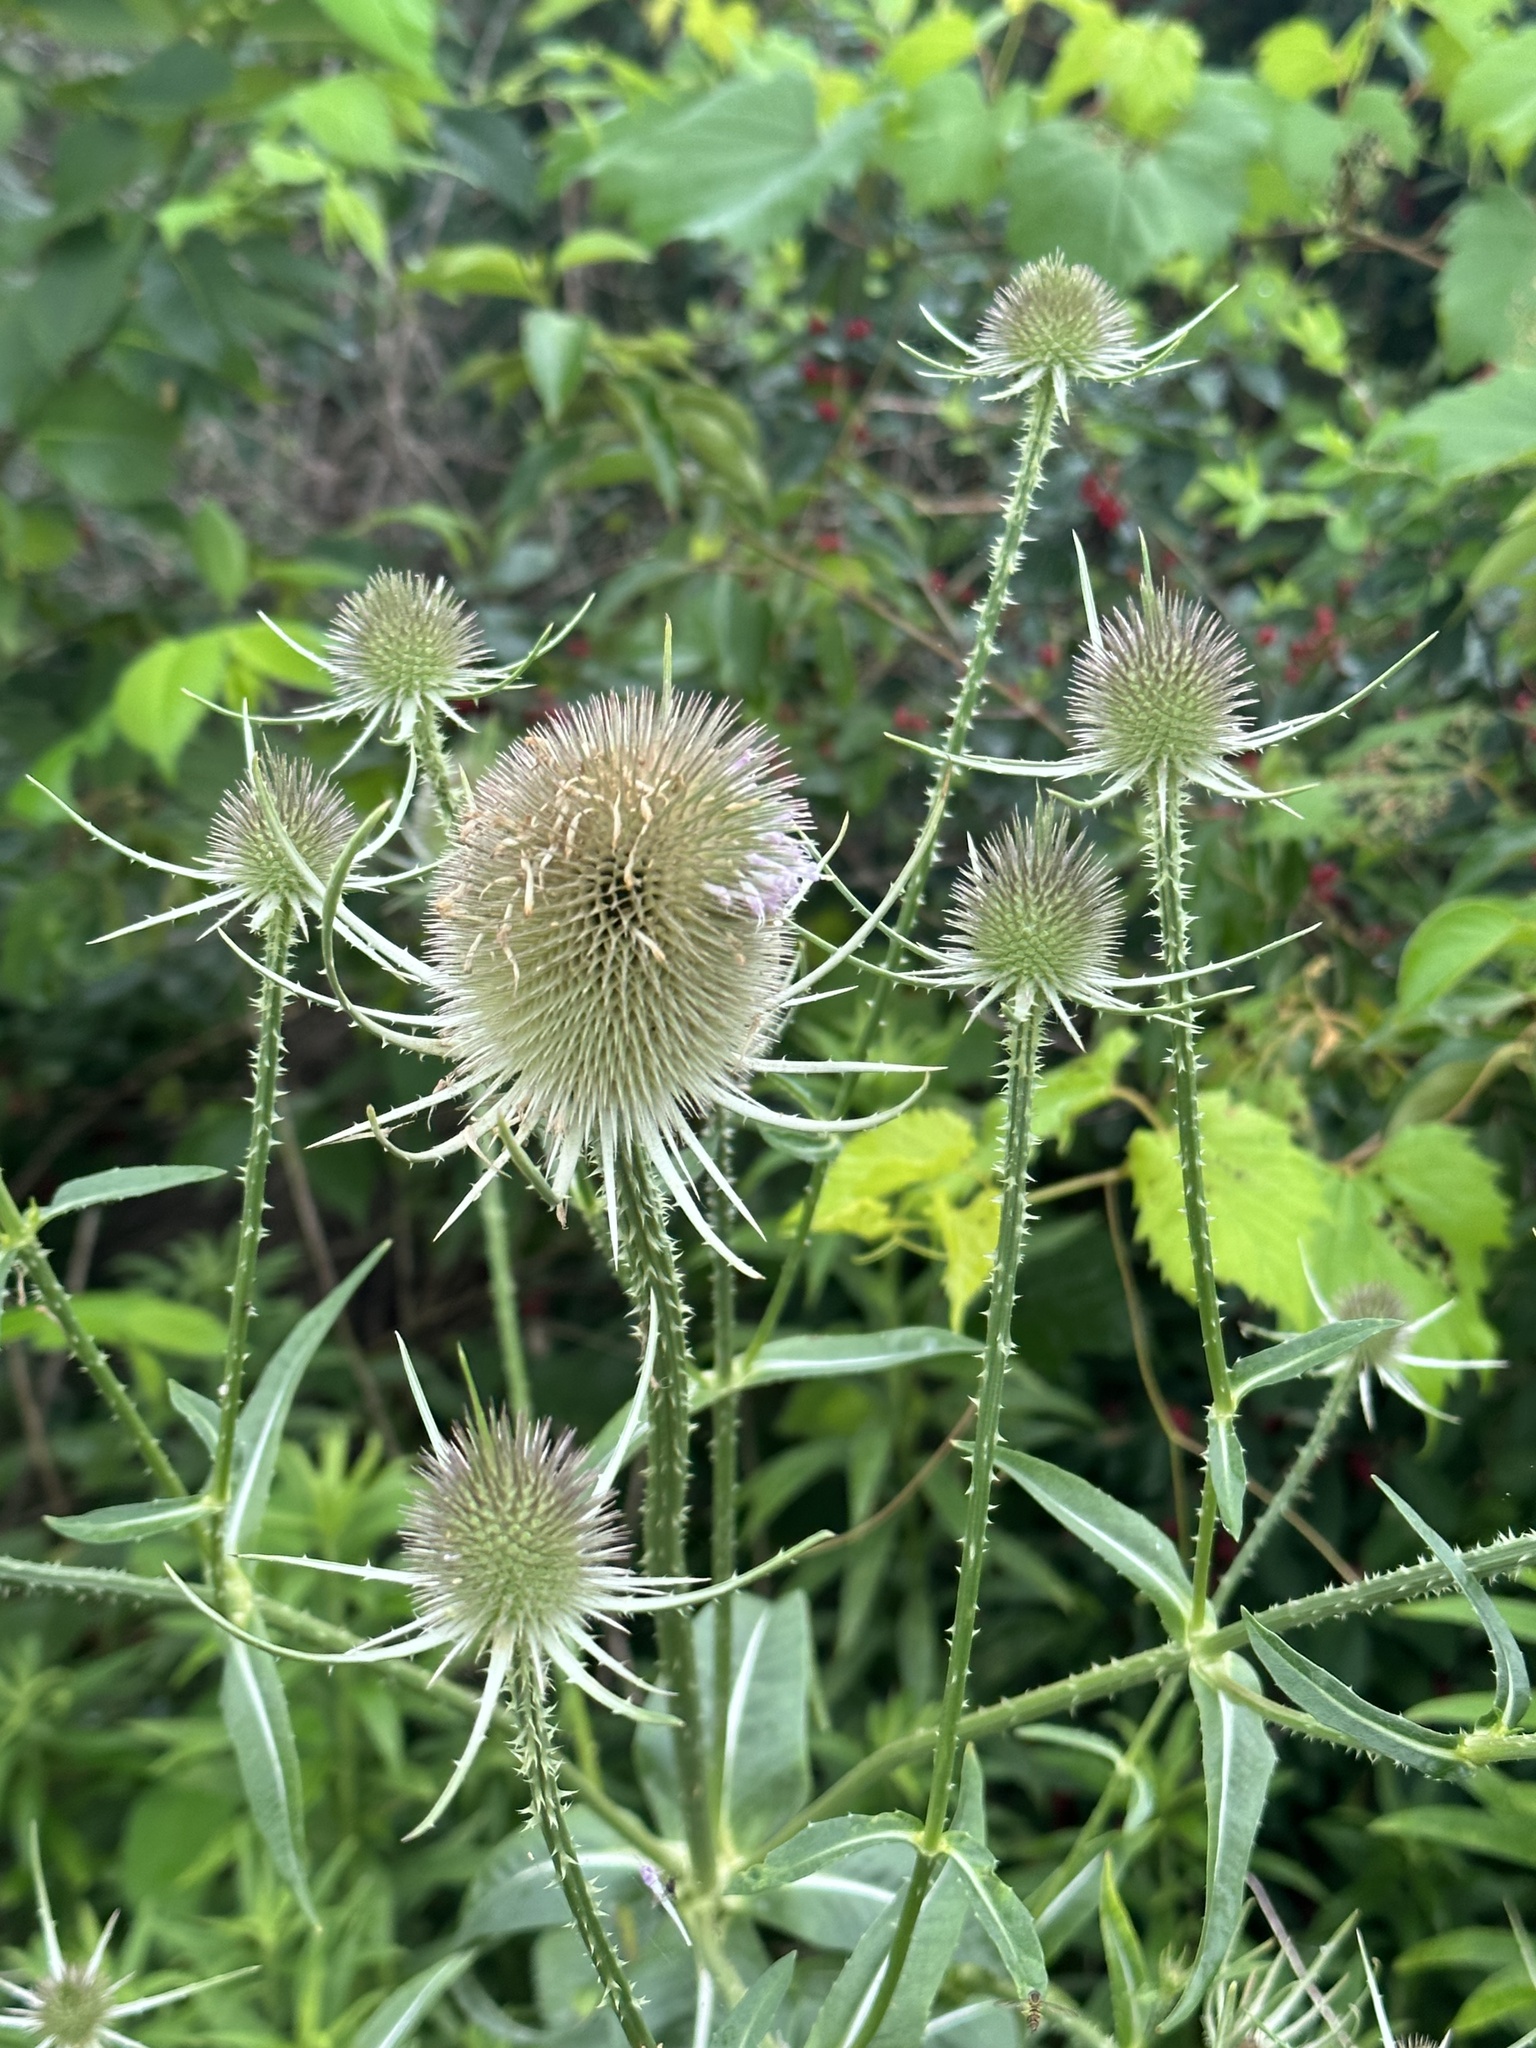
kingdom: Plantae
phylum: Tracheophyta
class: Magnoliopsida
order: Dipsacales
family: Caprifoliaceae
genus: Dipsacus
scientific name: Dipsacus fullonum
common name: Teasel
